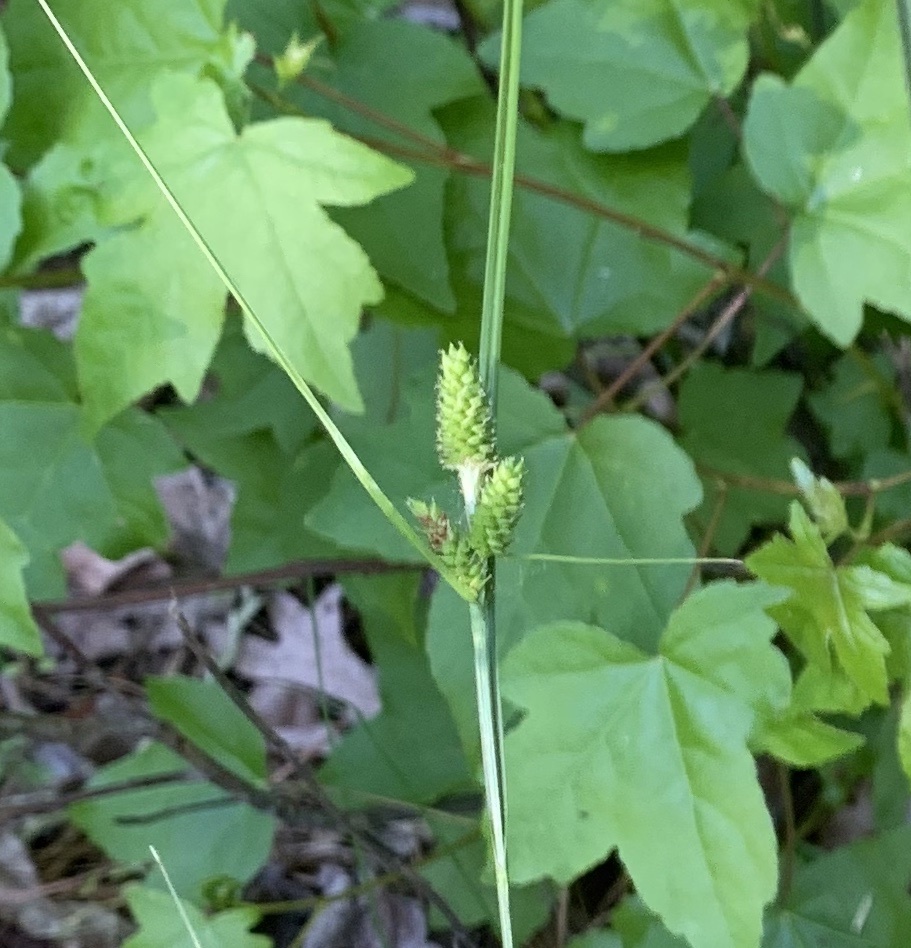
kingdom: Plantae
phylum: Tracheophyta
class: Liliopsida
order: Poales
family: Cyperaceae
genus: Carex
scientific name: Carex complanata
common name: Hirsute sedge
